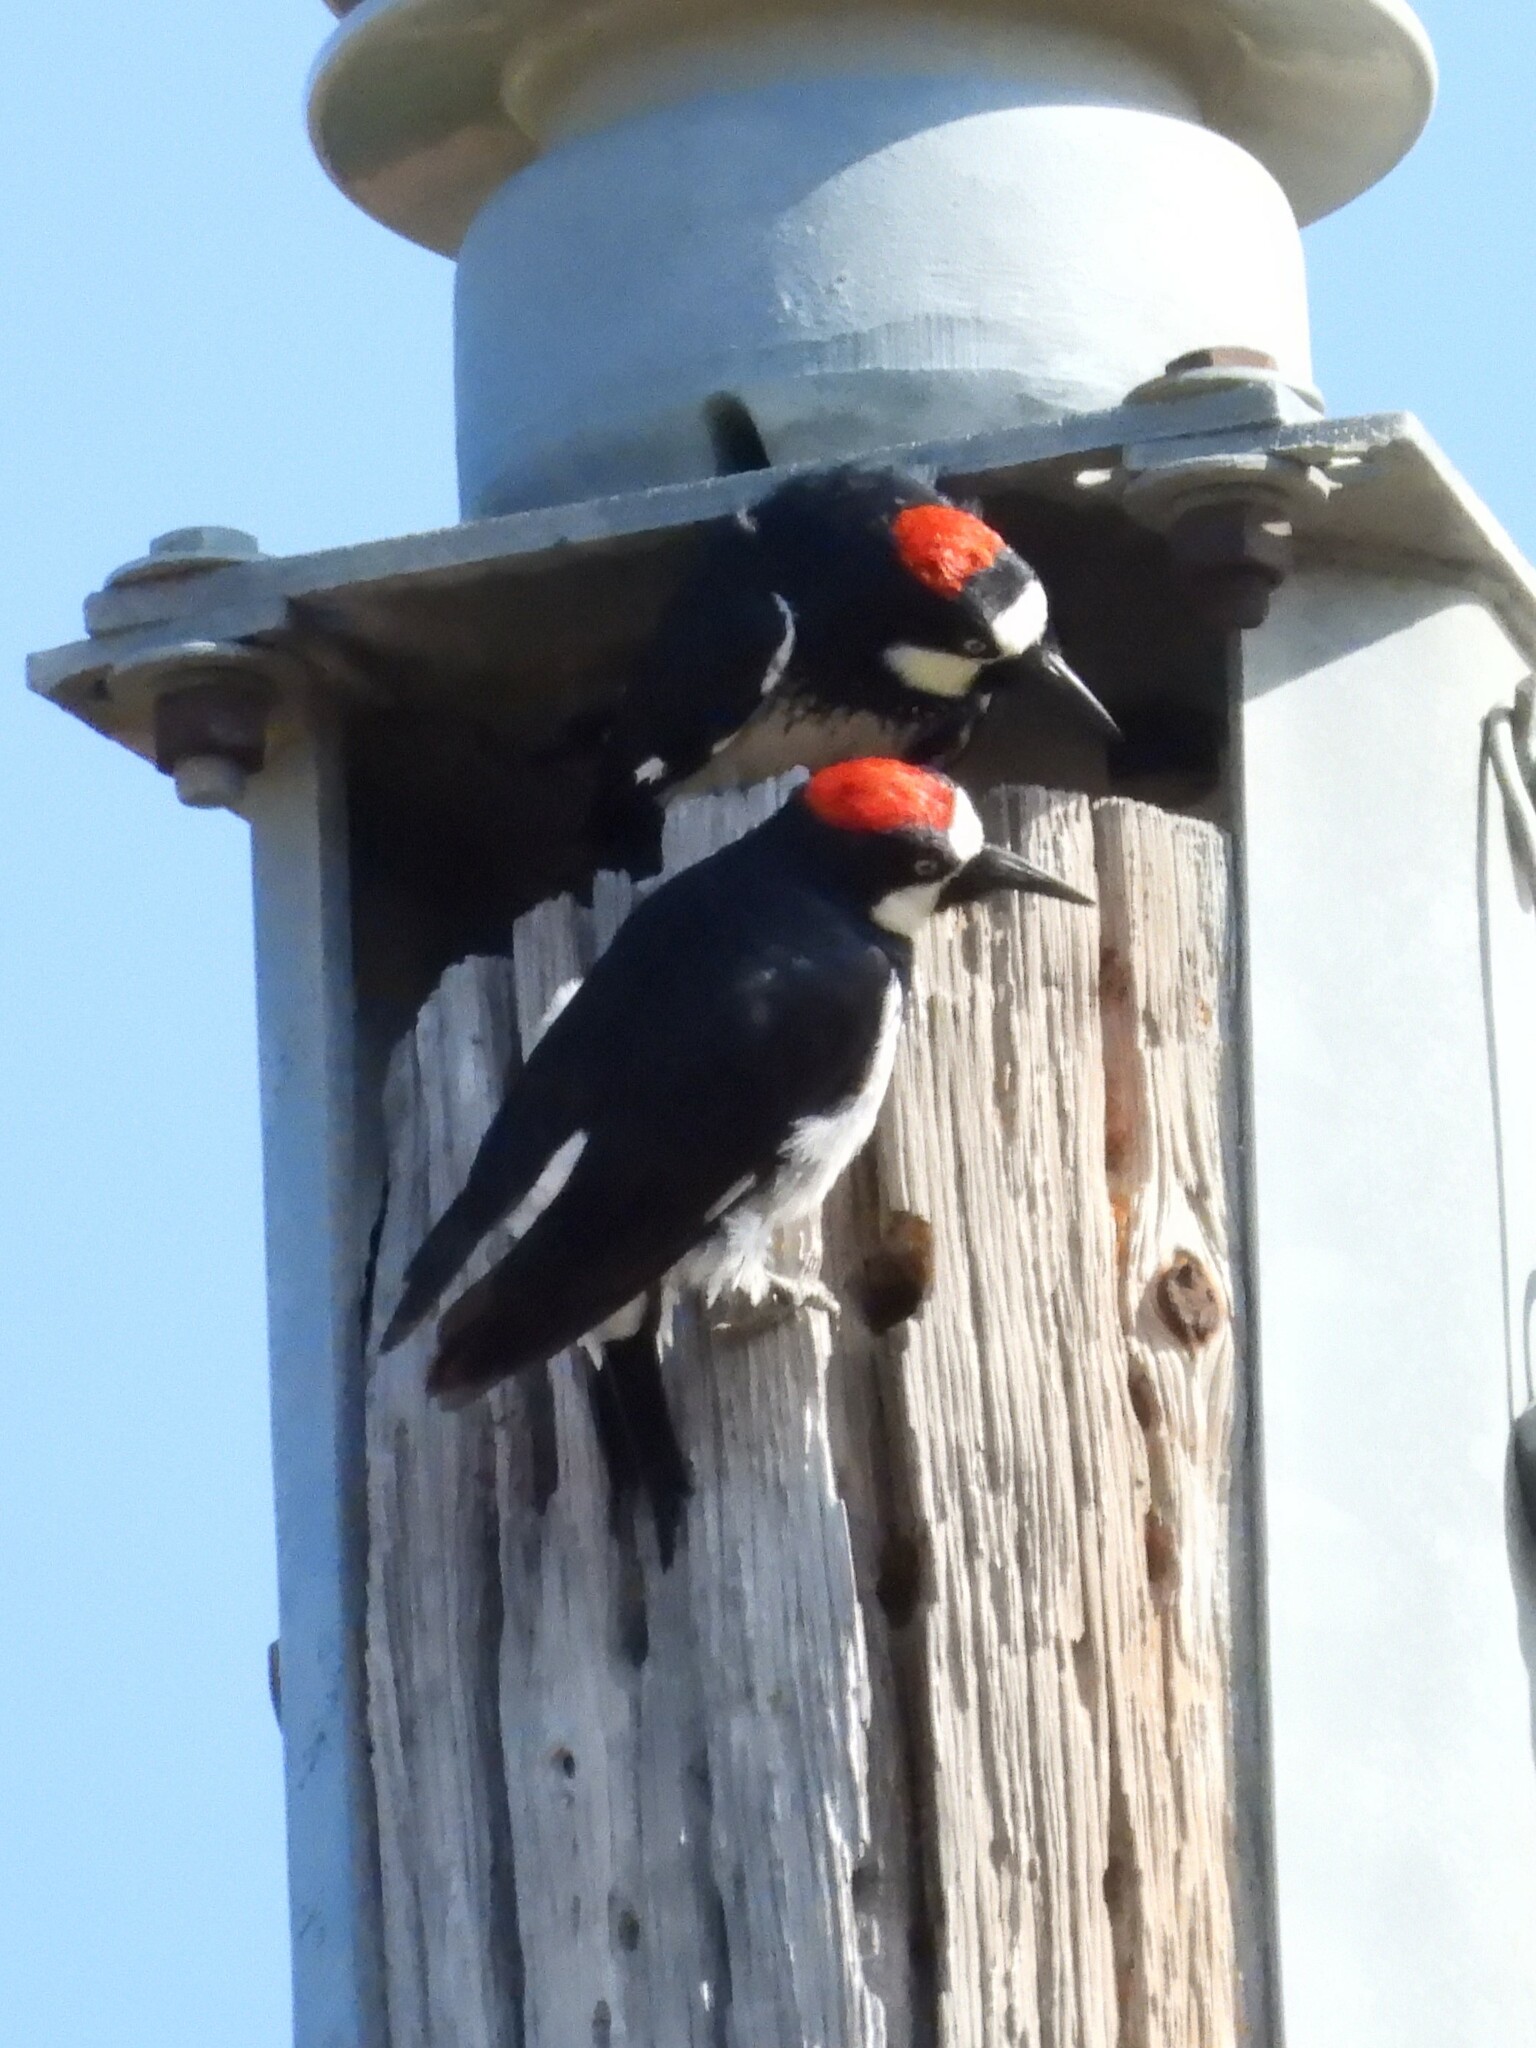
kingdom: Animalia
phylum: Chordata
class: Aves
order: Piciformes
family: Picidae
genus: Melanerpes
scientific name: Melanerpes formicivorus
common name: Acorn woodpecker
